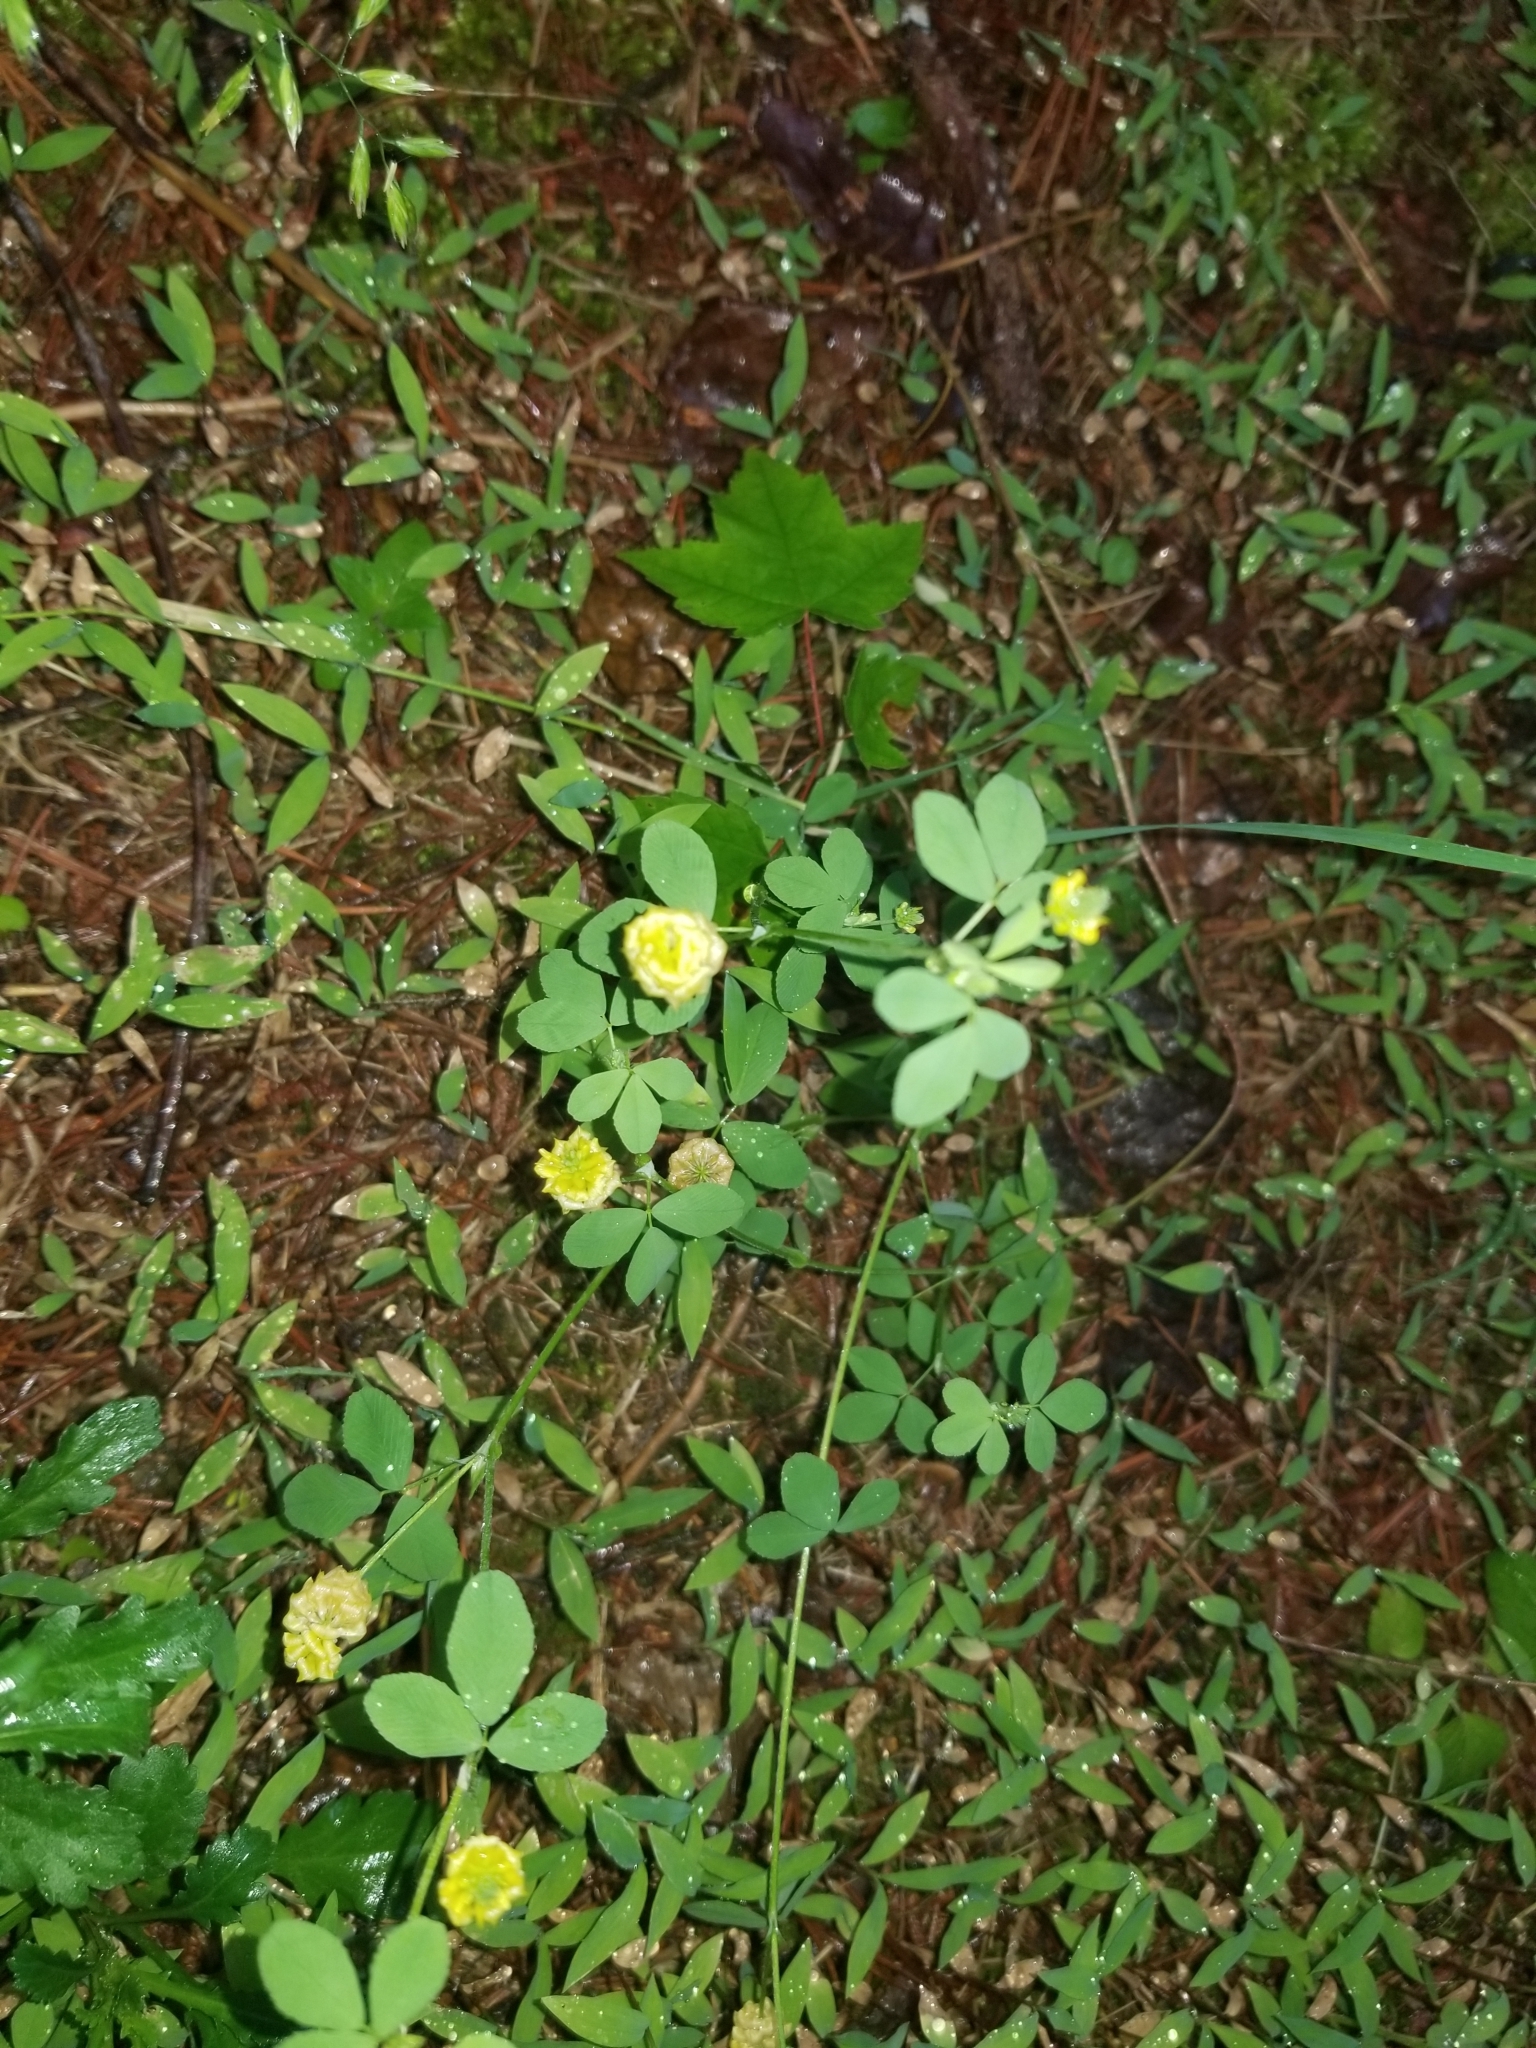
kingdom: Plantae
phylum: Tracheophyta
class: Magnoliopsida
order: Fabales
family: Fabaceae
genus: Trifolium
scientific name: Trifolium campestre
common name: Field clover
